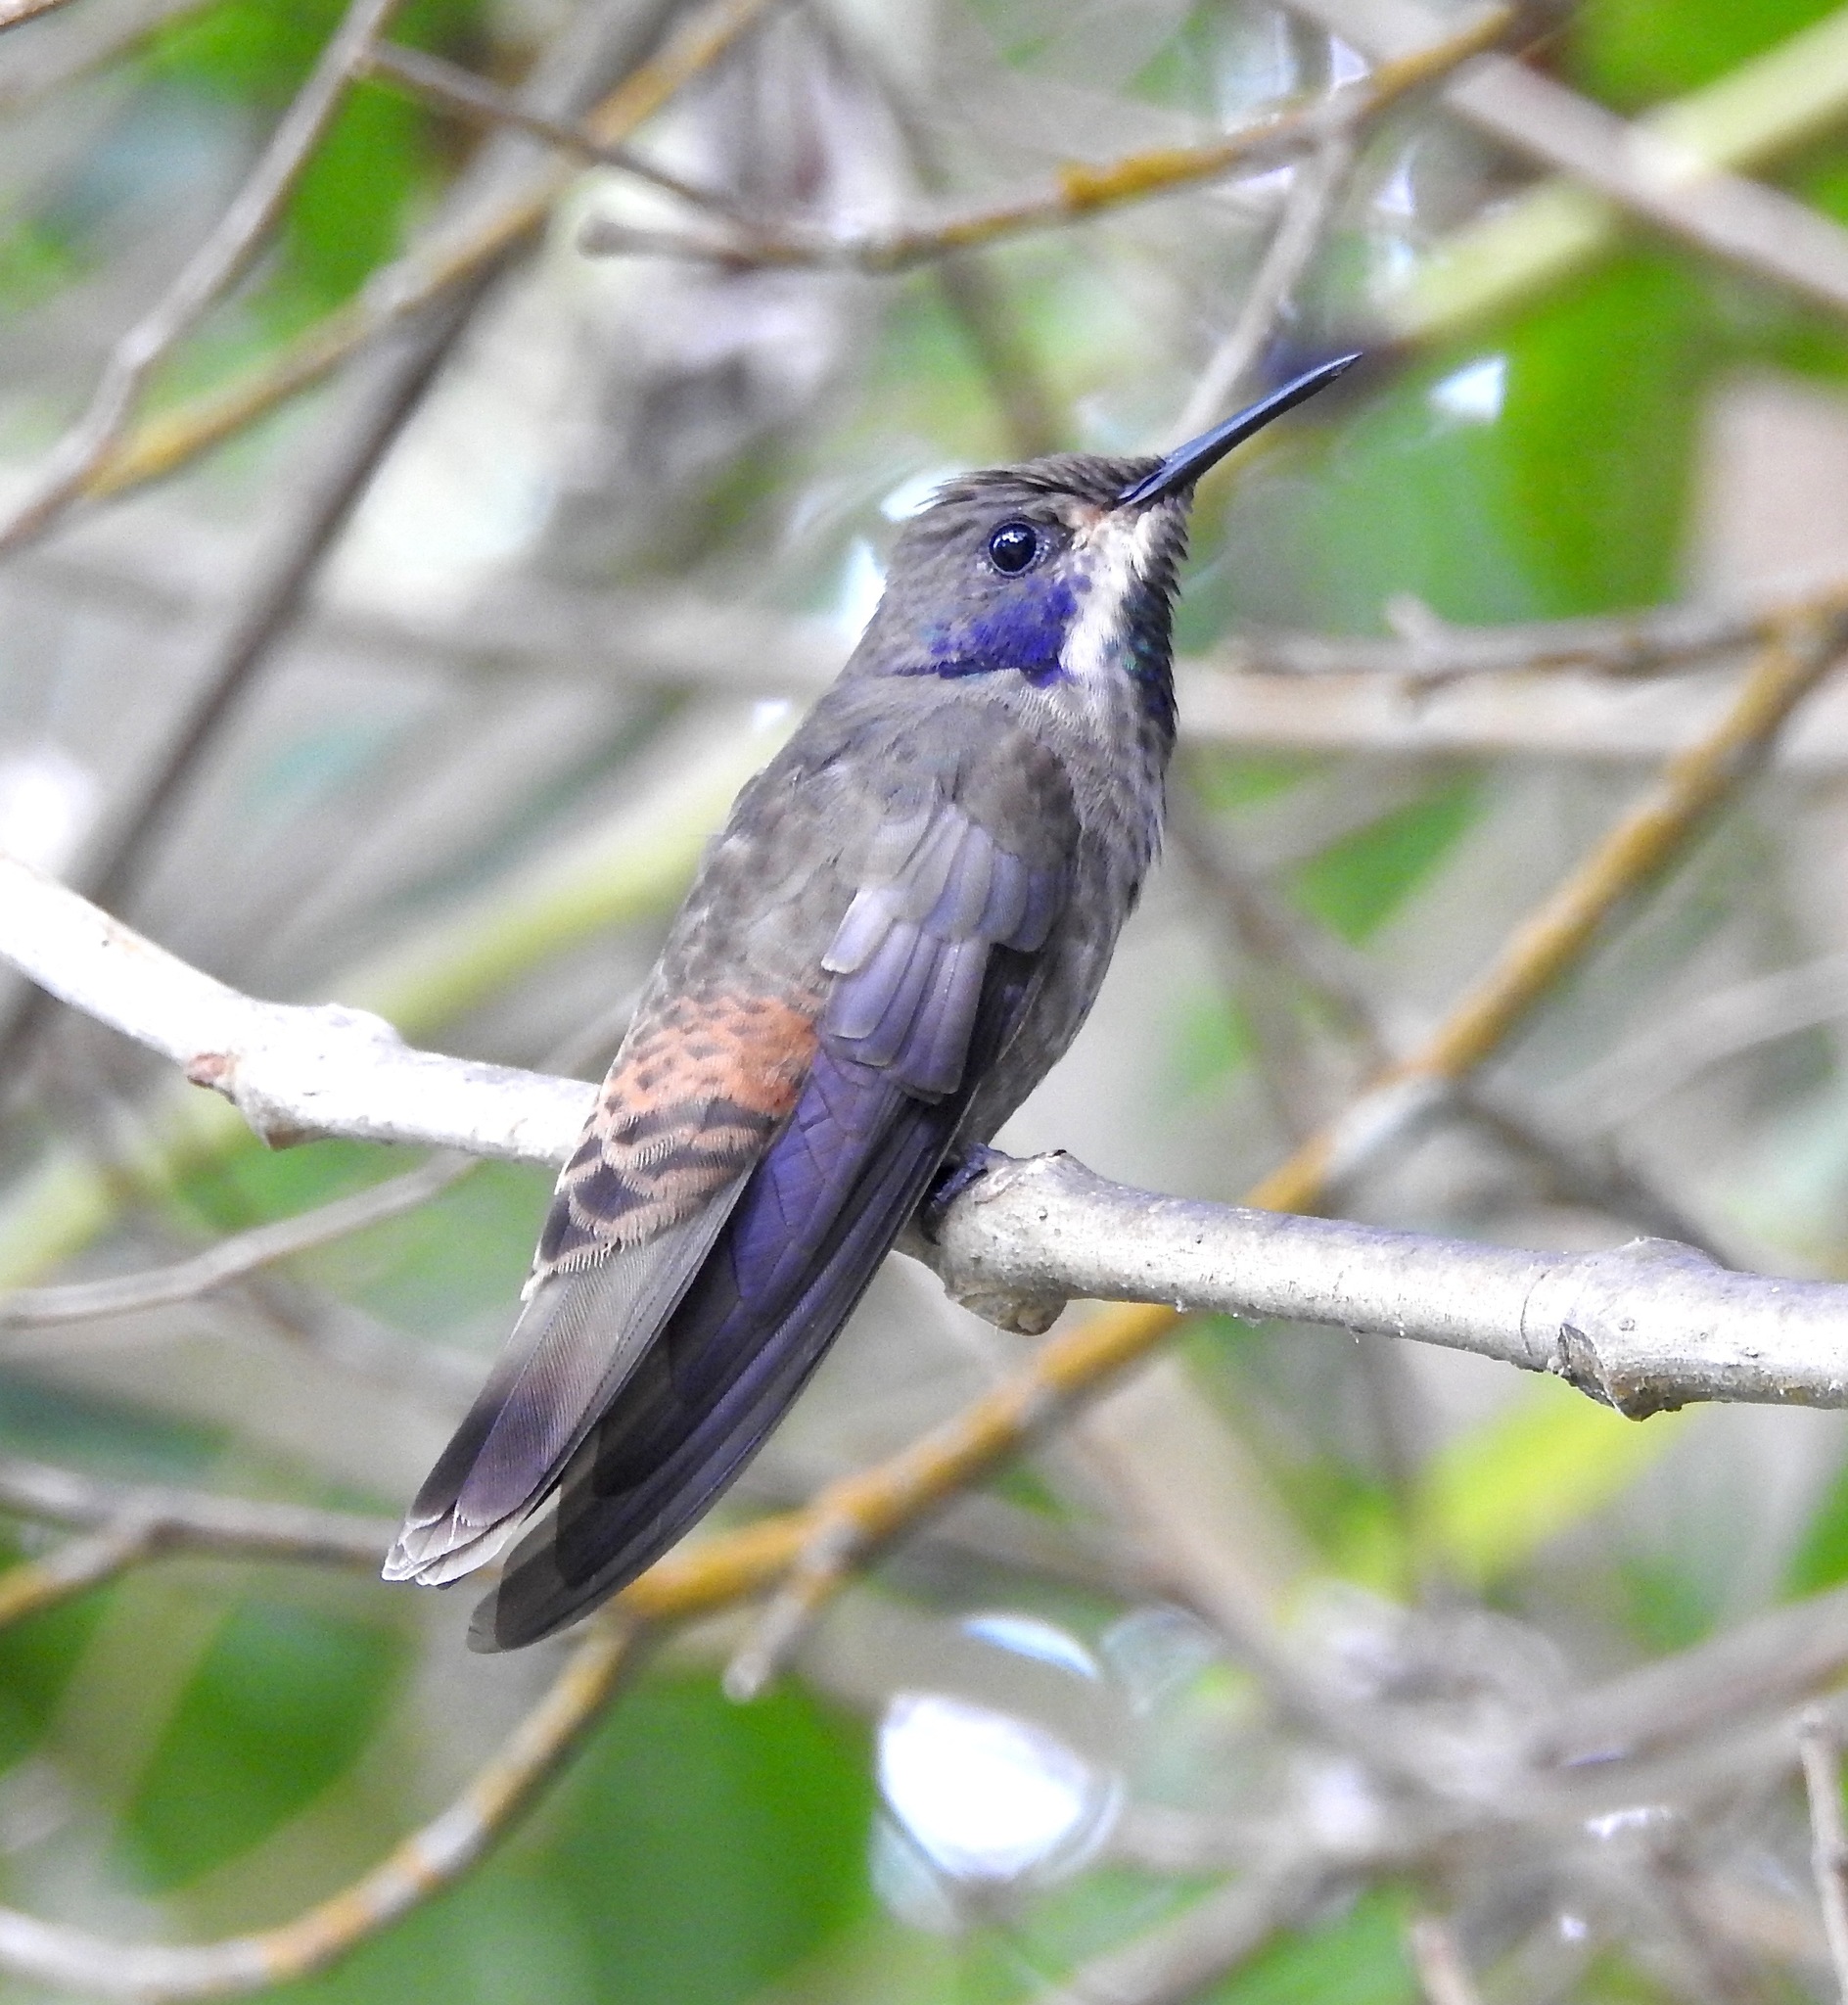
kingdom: Animalia
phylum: Chordata
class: Aves
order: Apodiformes
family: Trochilidae
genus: Colibri
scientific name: Colibri delphinae
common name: Brown violetear
